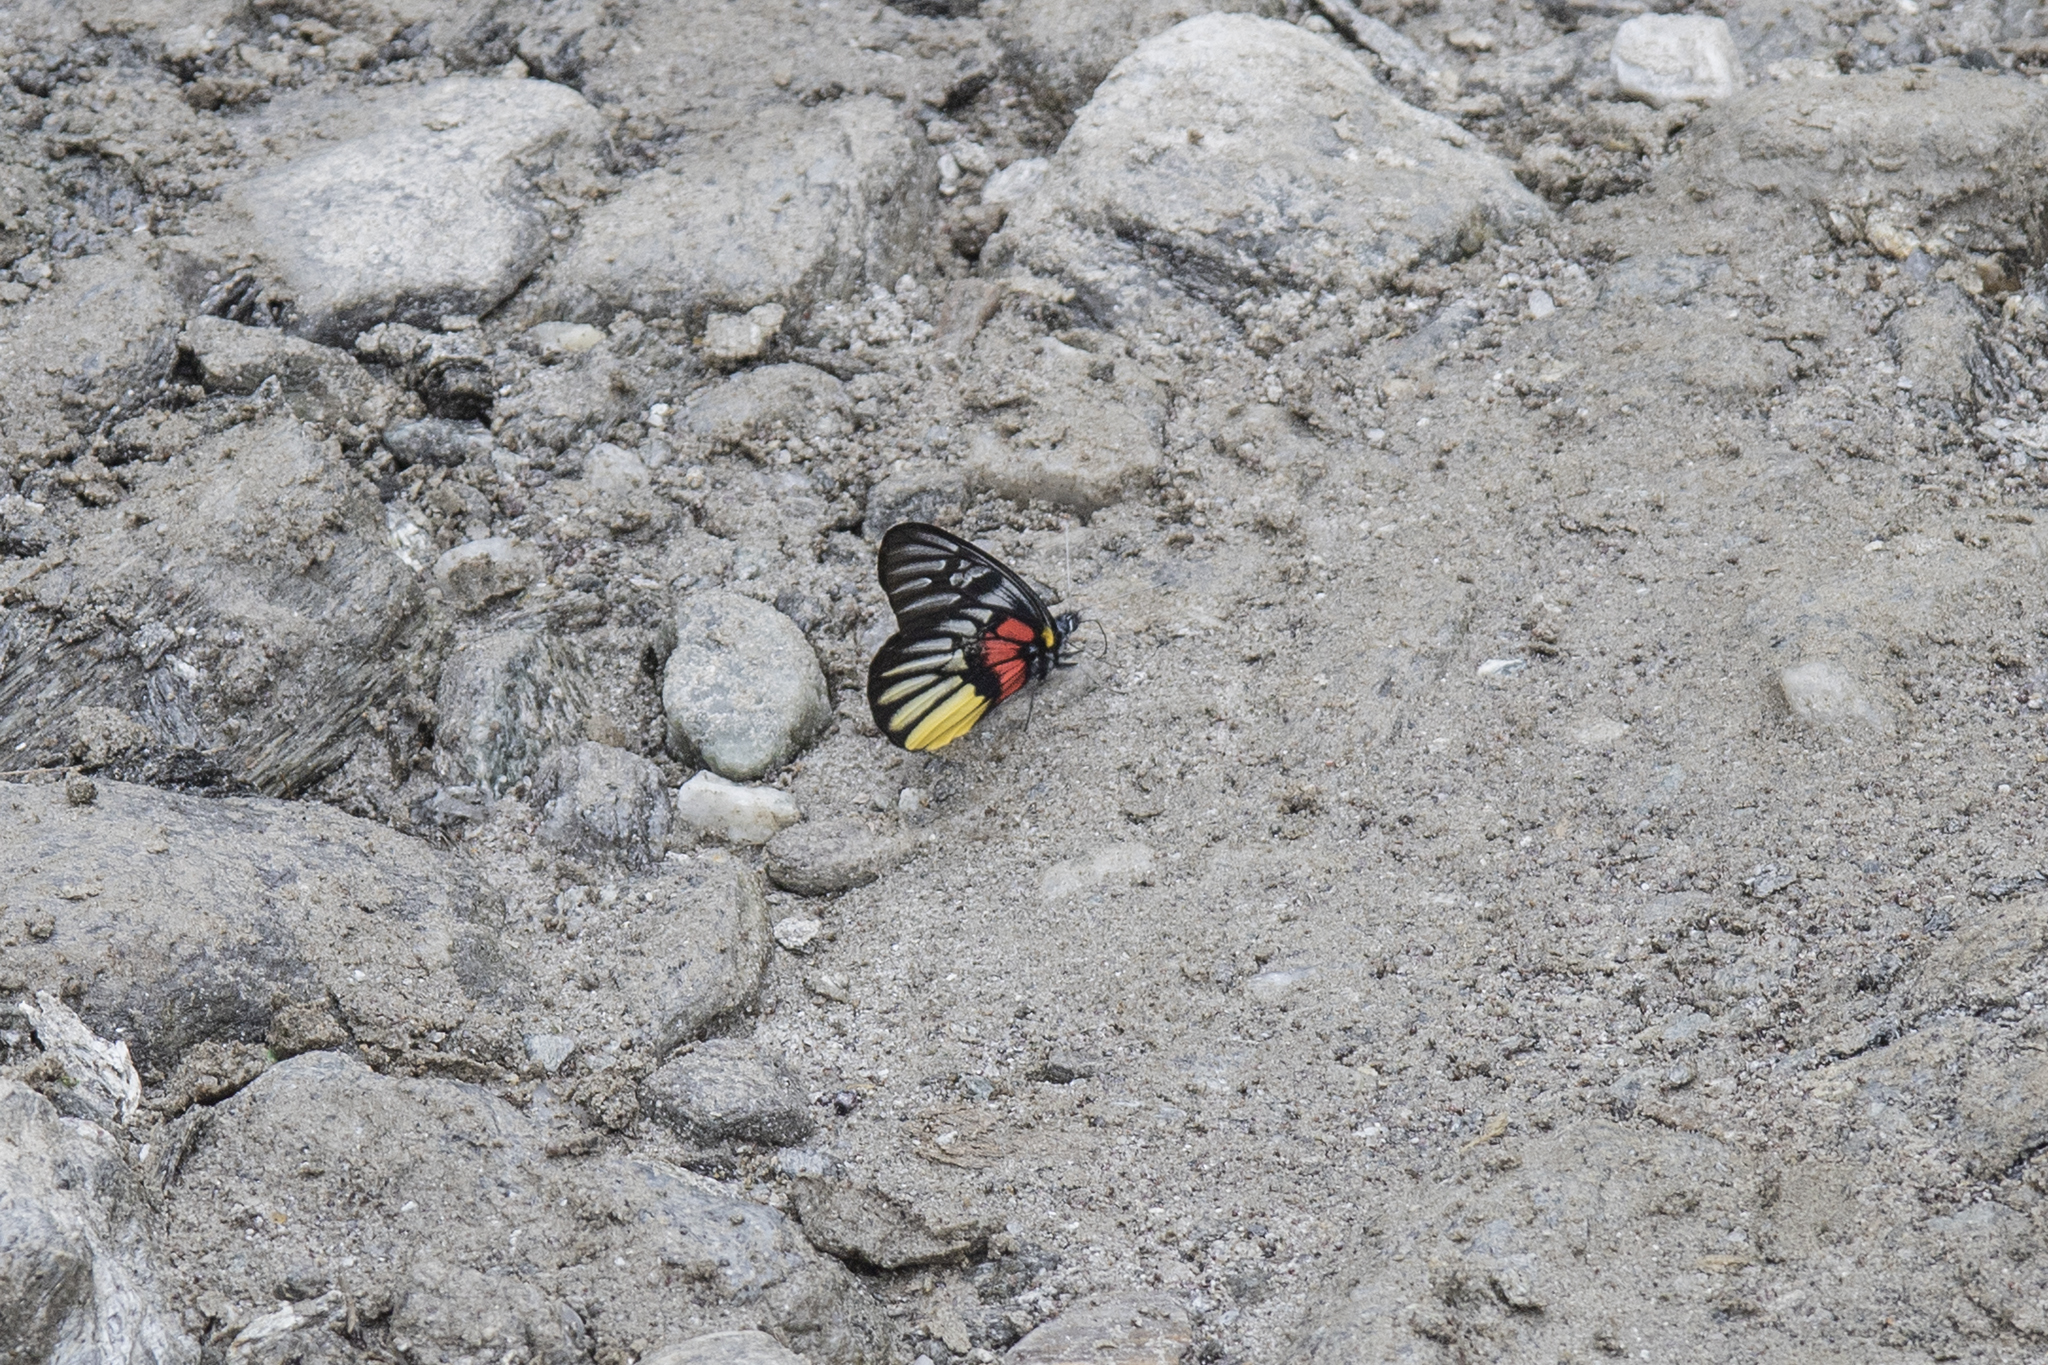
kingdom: Animalia
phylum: Arthropoda
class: Insecta
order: Lepidoptera
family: Pieridae
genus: Delias
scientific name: Delias acalis
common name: Red-breast jezebel
